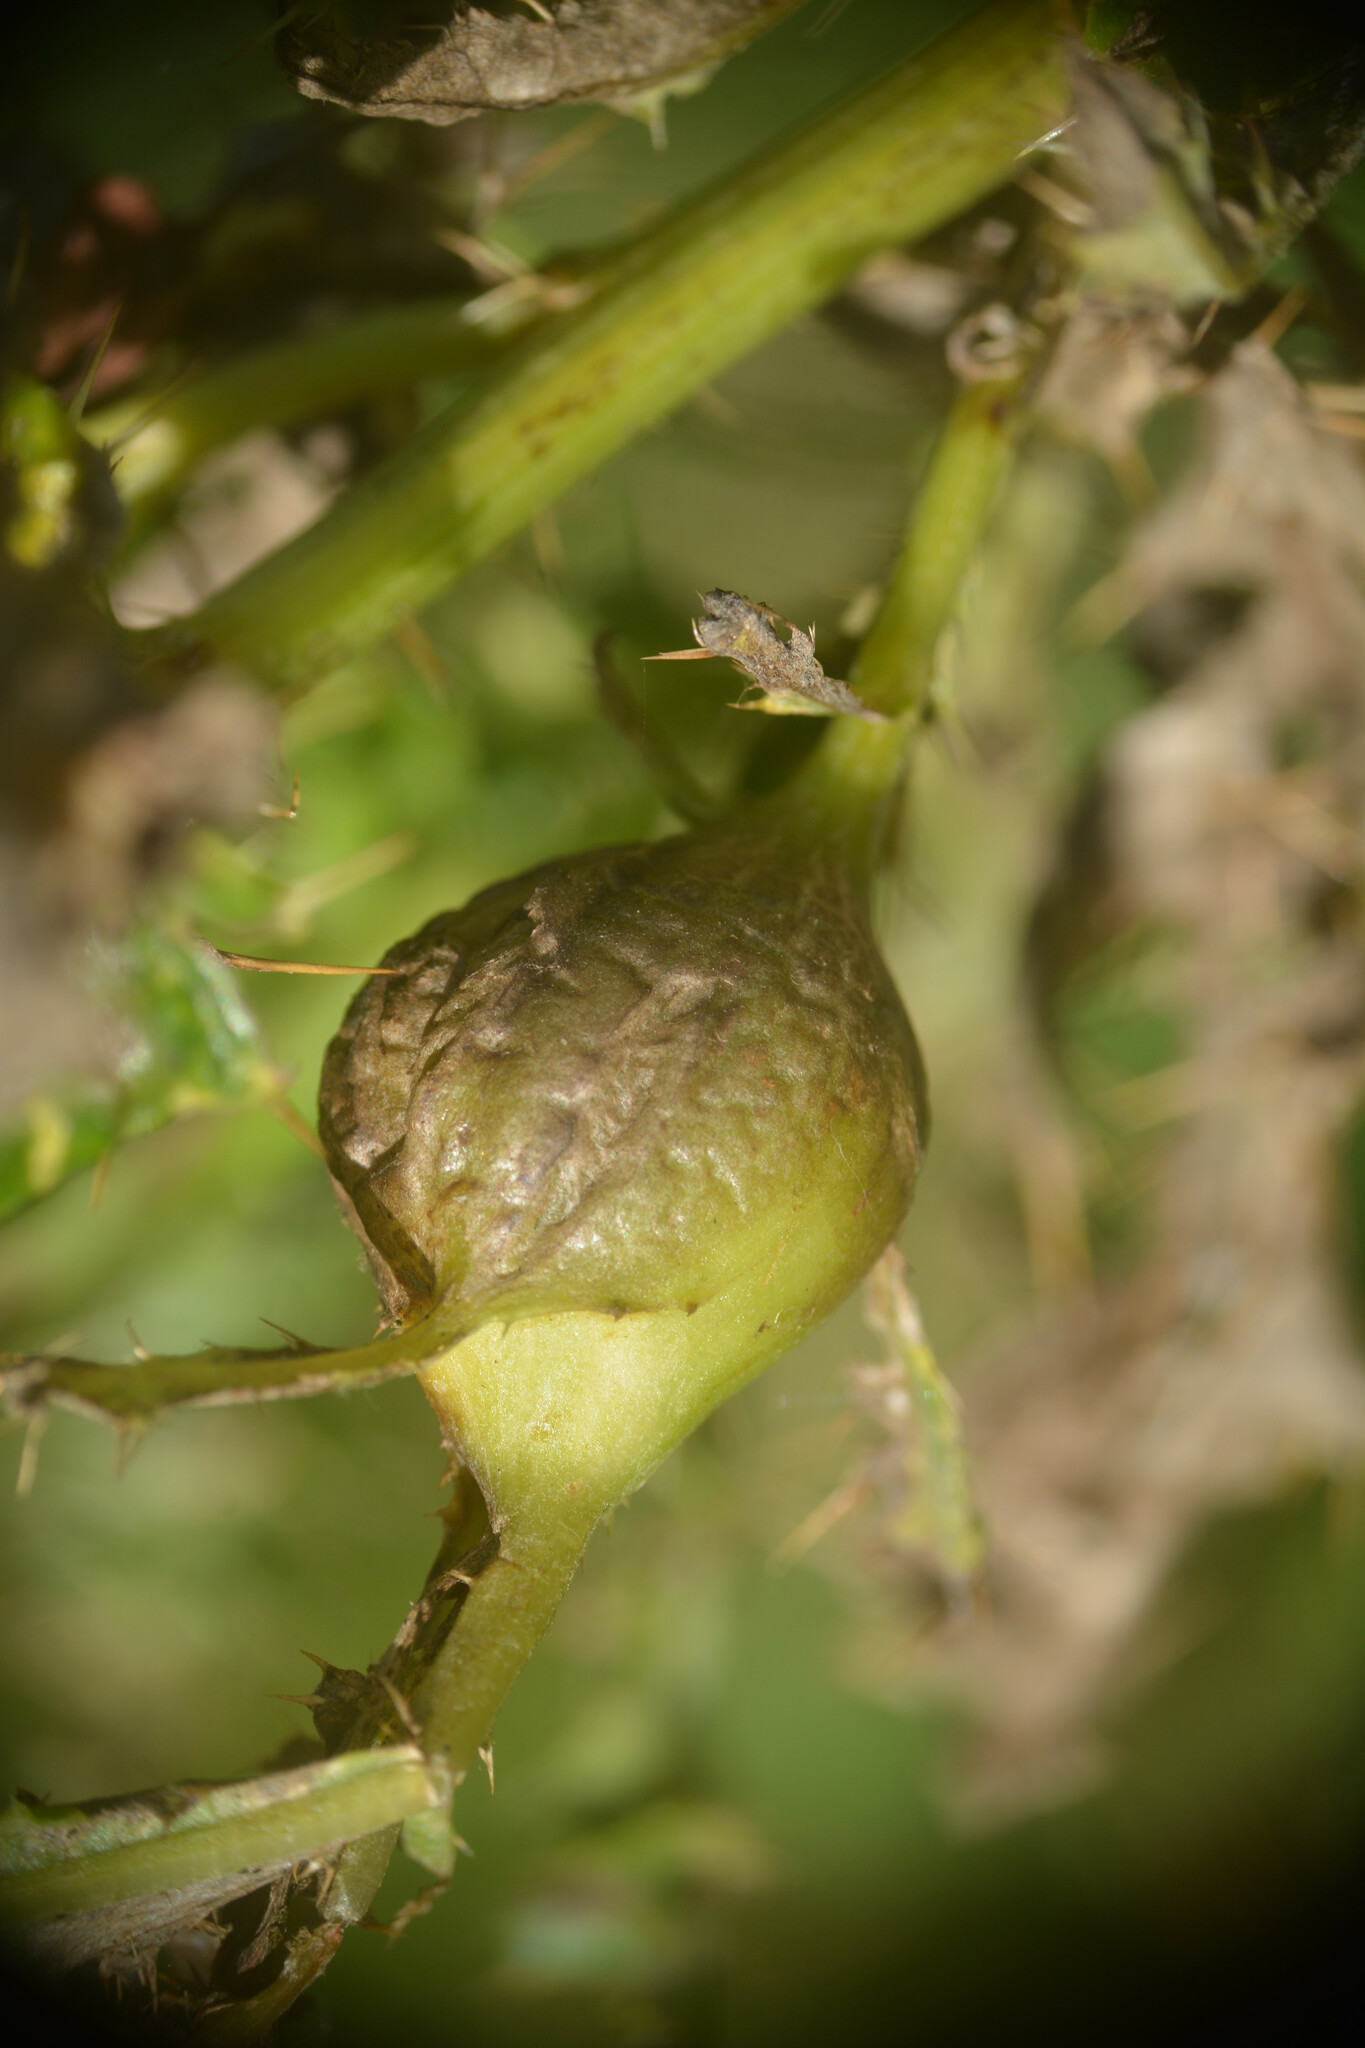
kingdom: Animalia
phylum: Arthropoda
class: Insecta
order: Diptera
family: Tephritidae
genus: Urophora
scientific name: Urophora cardui
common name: Fruit fly
